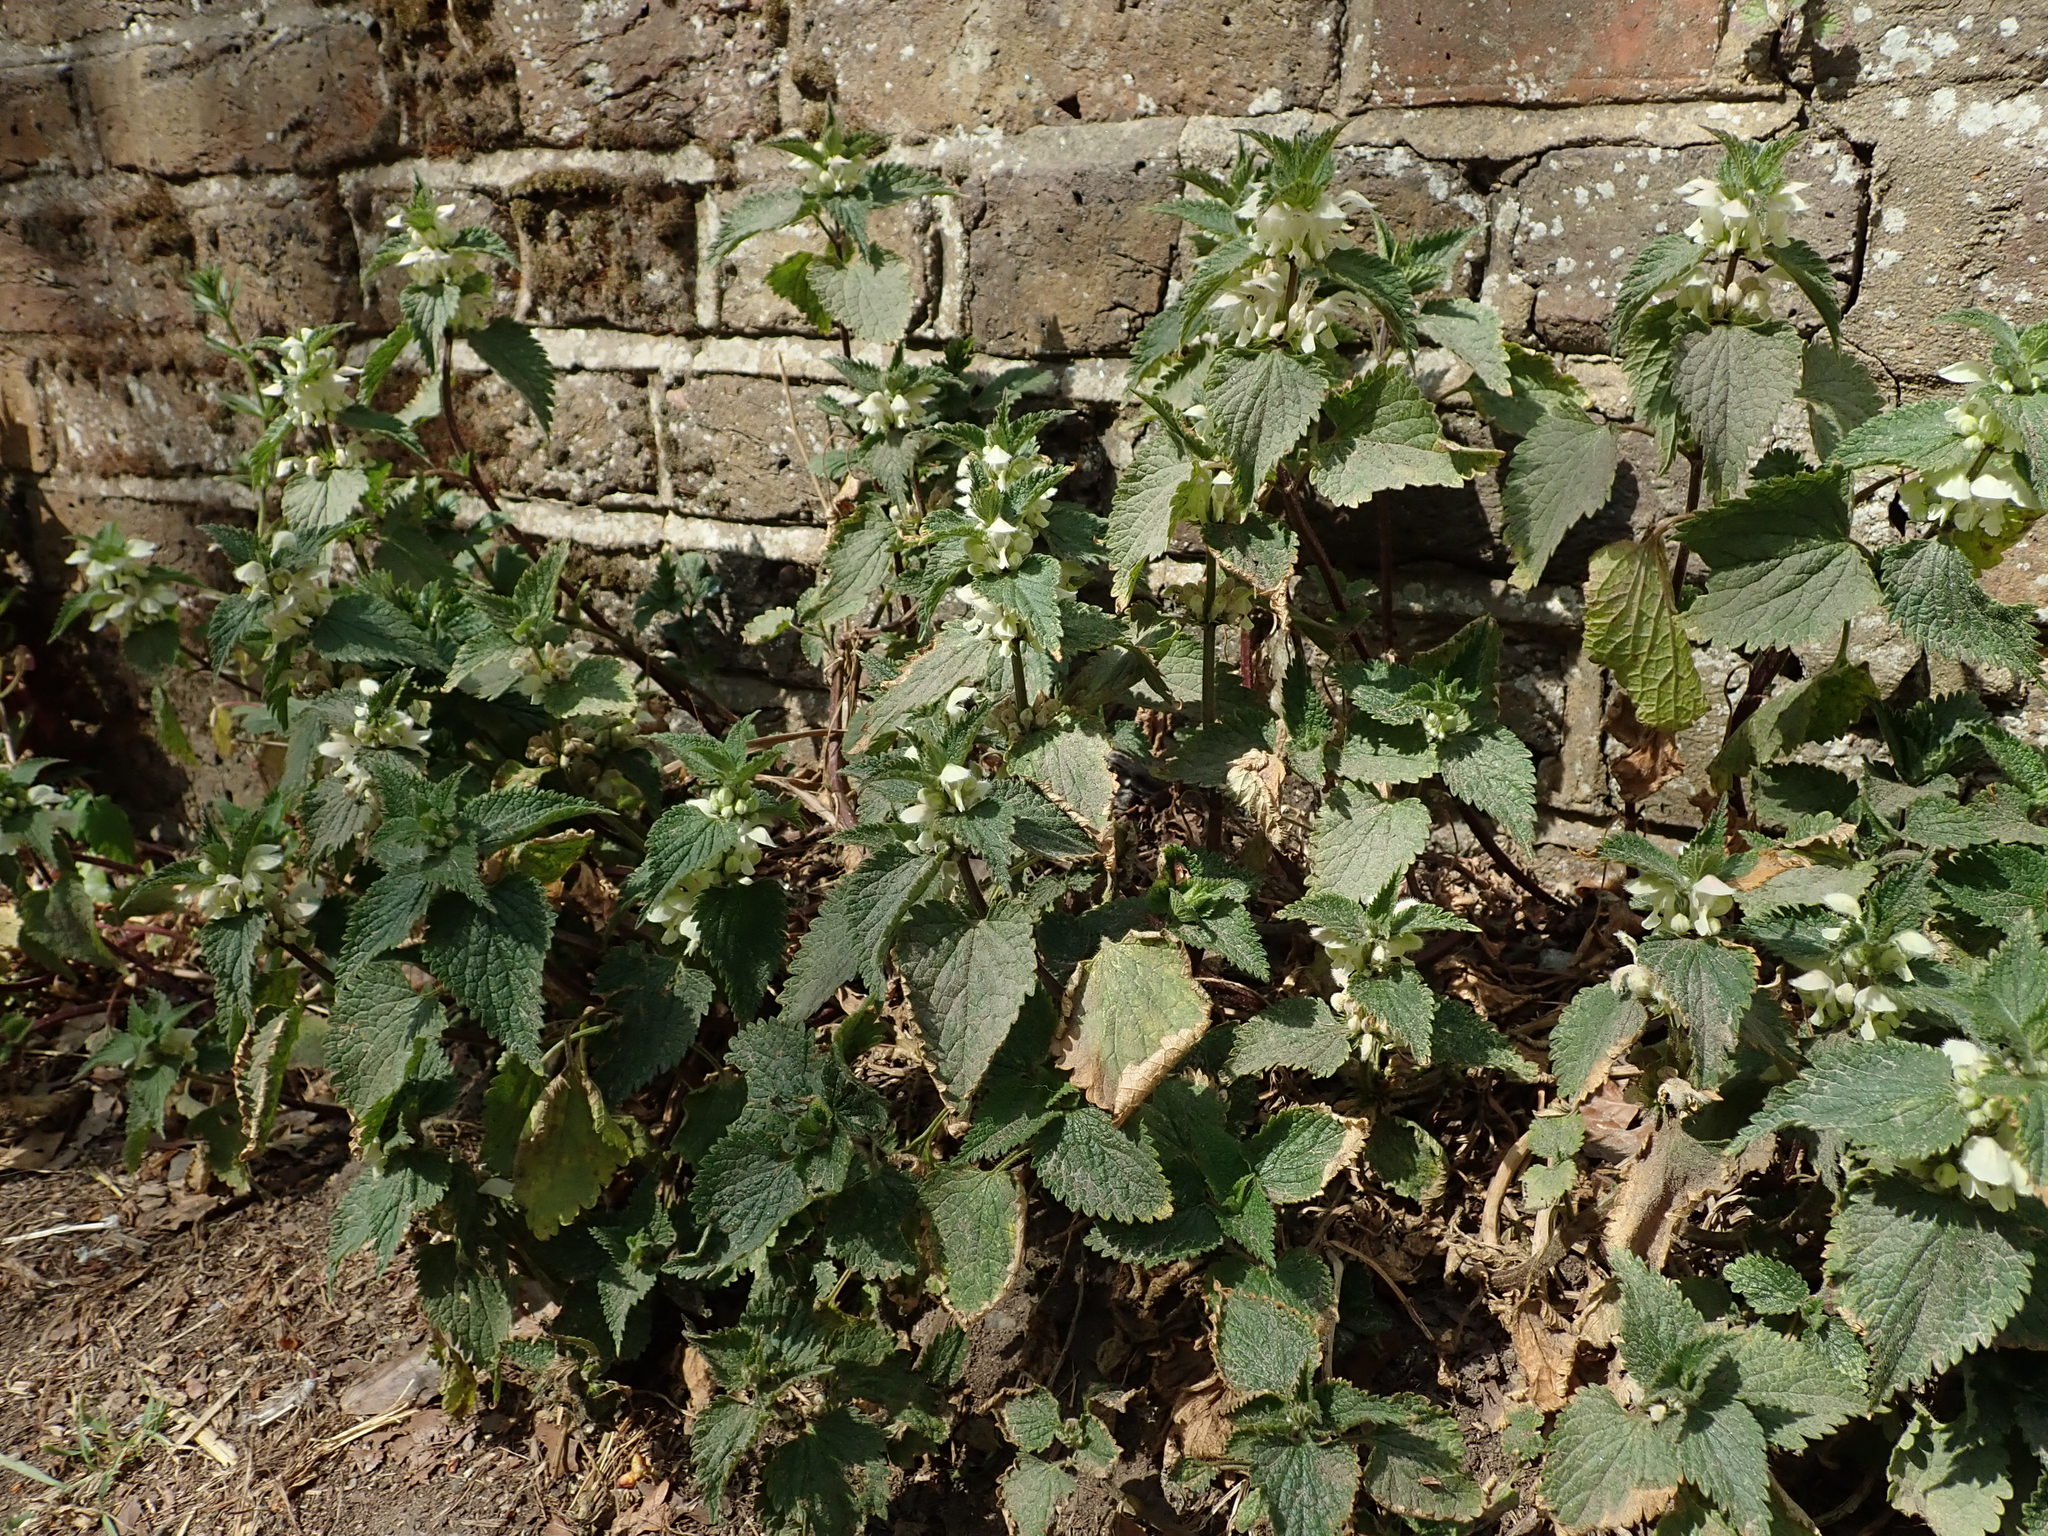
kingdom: Plantae
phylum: Tracheophyta
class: Magnoliopsida
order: Lamiales
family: Lamiaceae
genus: Lamium
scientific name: Lamium album
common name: White dead-nettle
